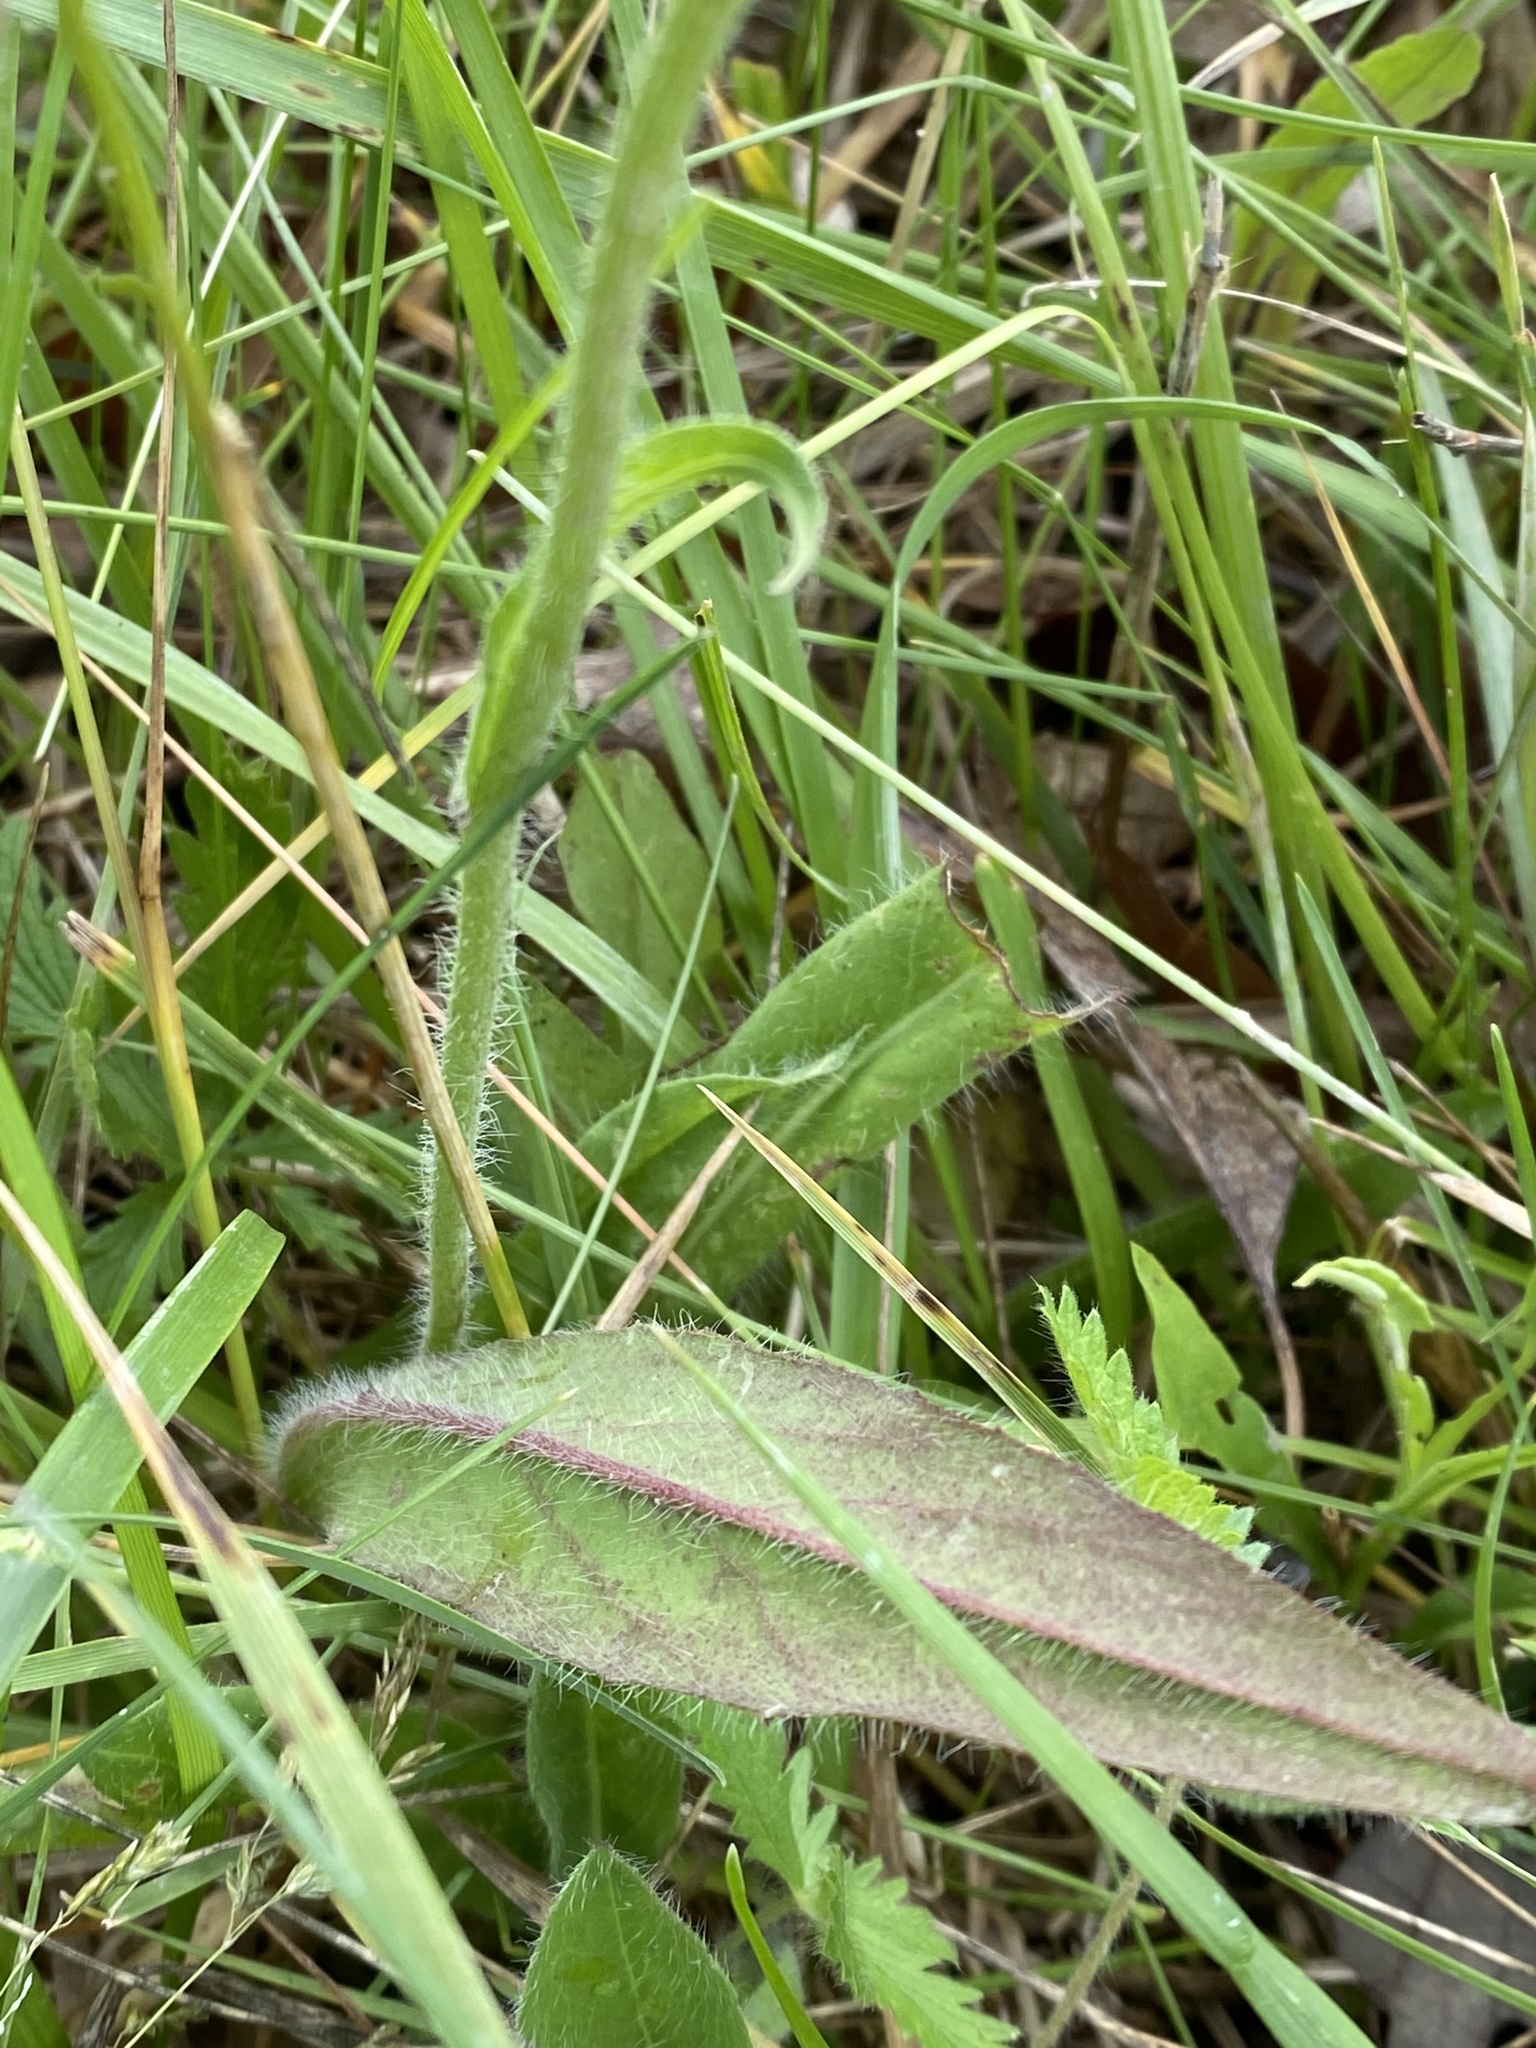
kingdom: Plantae
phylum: Tracheophyta
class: Magnoliopsida
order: Asterales
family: Asteraceae
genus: Pilosella
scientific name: Pilosella caespitosa
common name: Yellow fox-and-cubs
